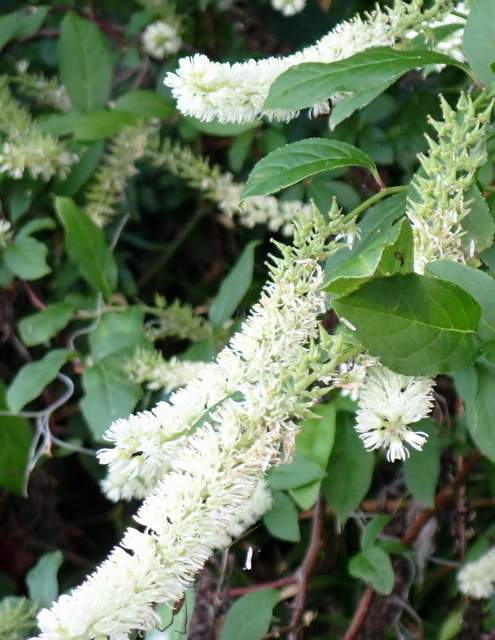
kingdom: Plantae
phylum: Tracheophyta
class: Magnoliopsida
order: Saxifragales
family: Iteaceae
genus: Itea
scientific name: Itea virginica
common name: Sweetspire
